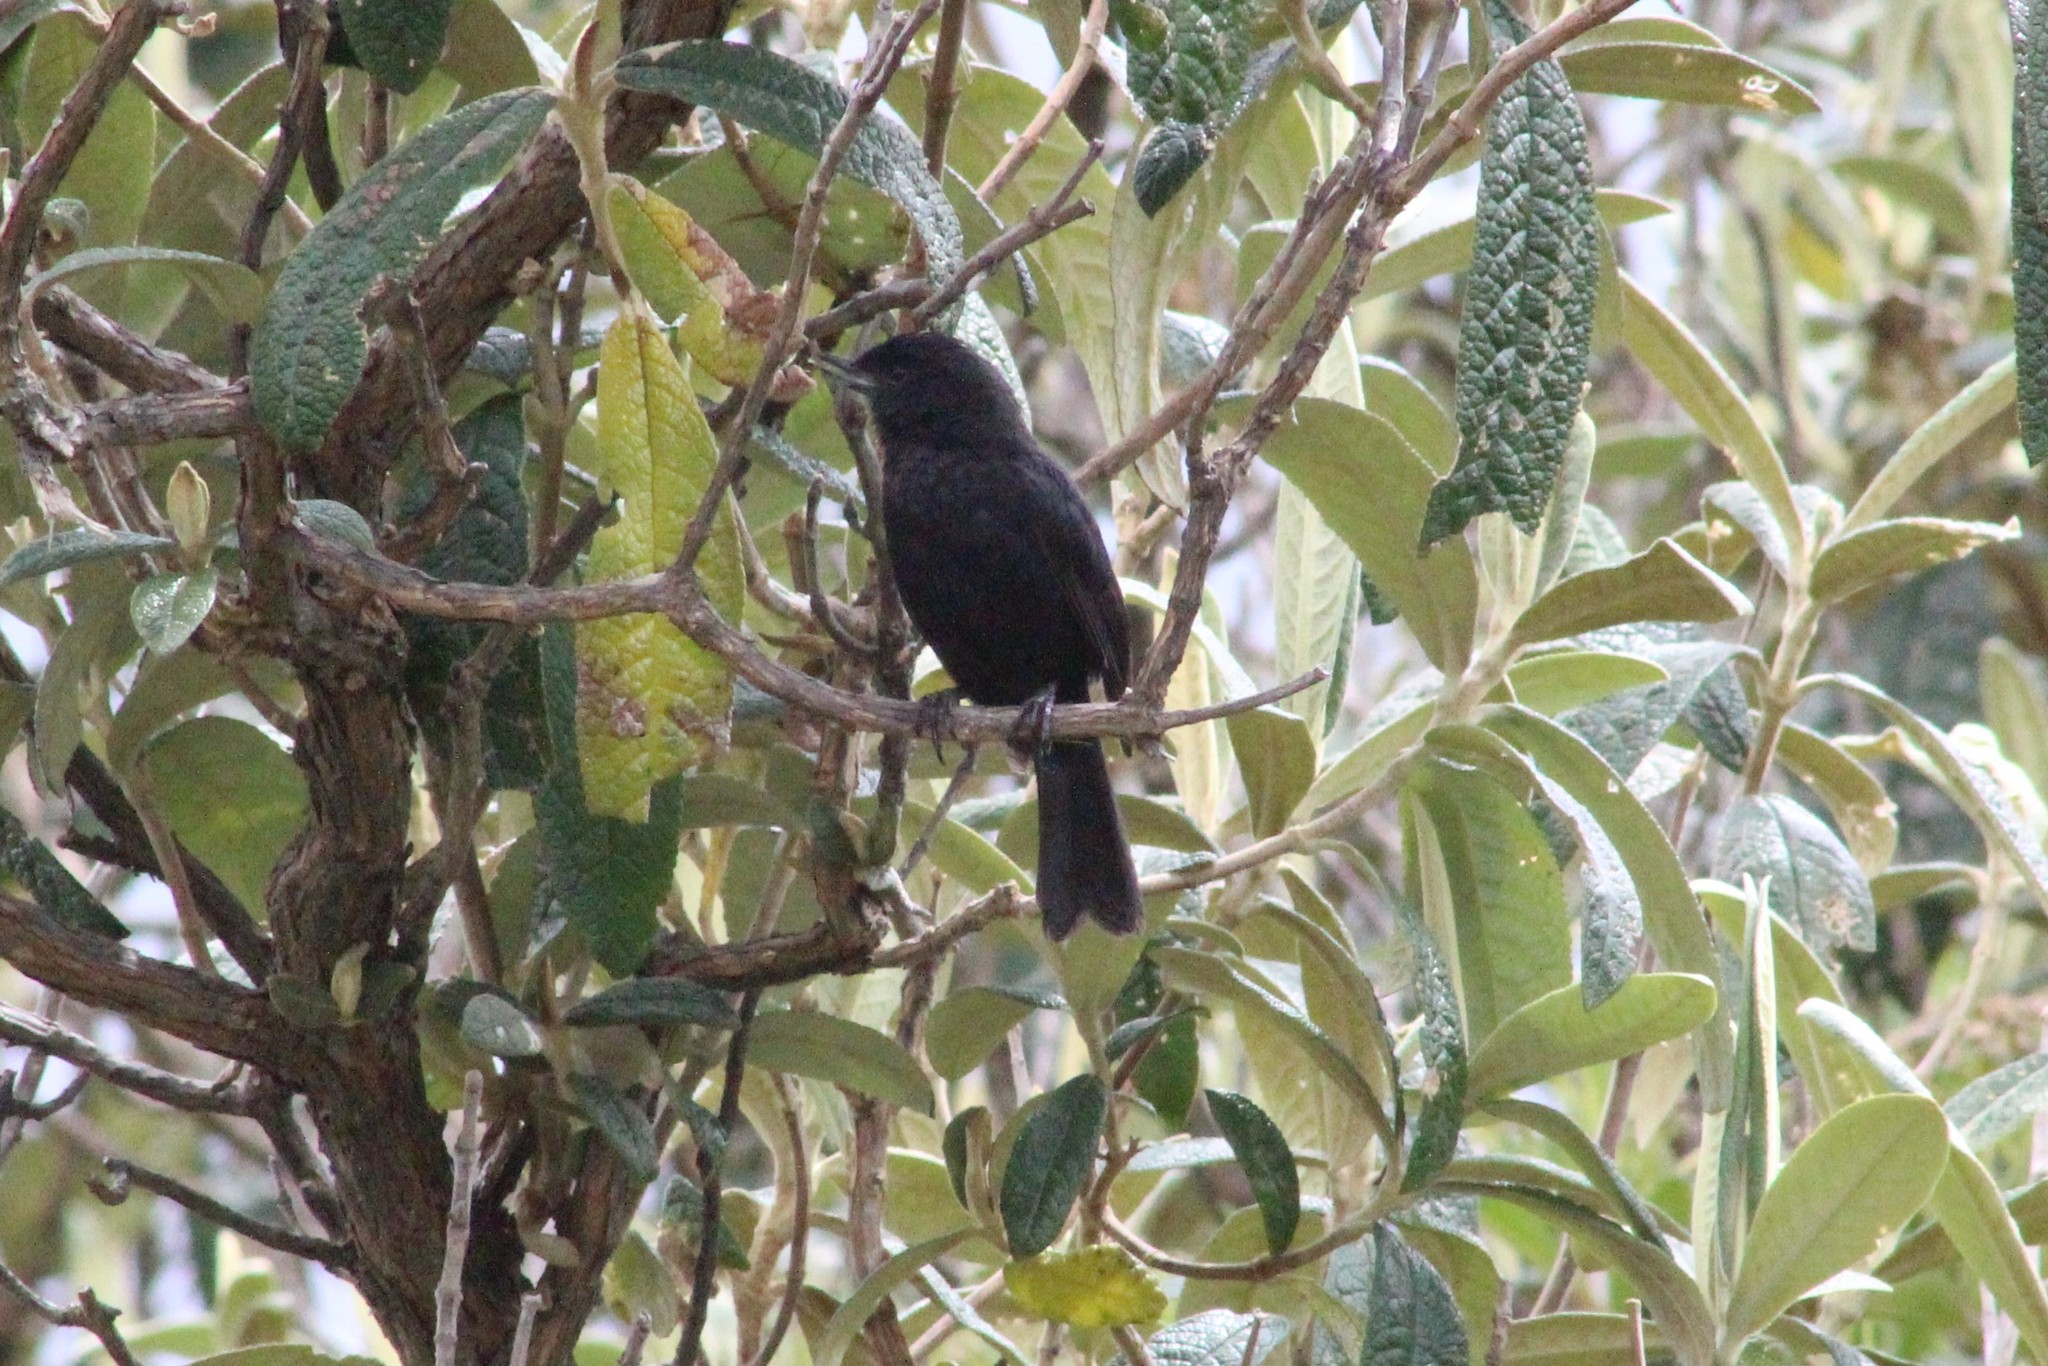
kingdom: Animalia
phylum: Chordata
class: Aves
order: Passeriformes
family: Thraupidae
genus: Diglossa
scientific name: Diglossa humeralis
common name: Black flowerpiercer
